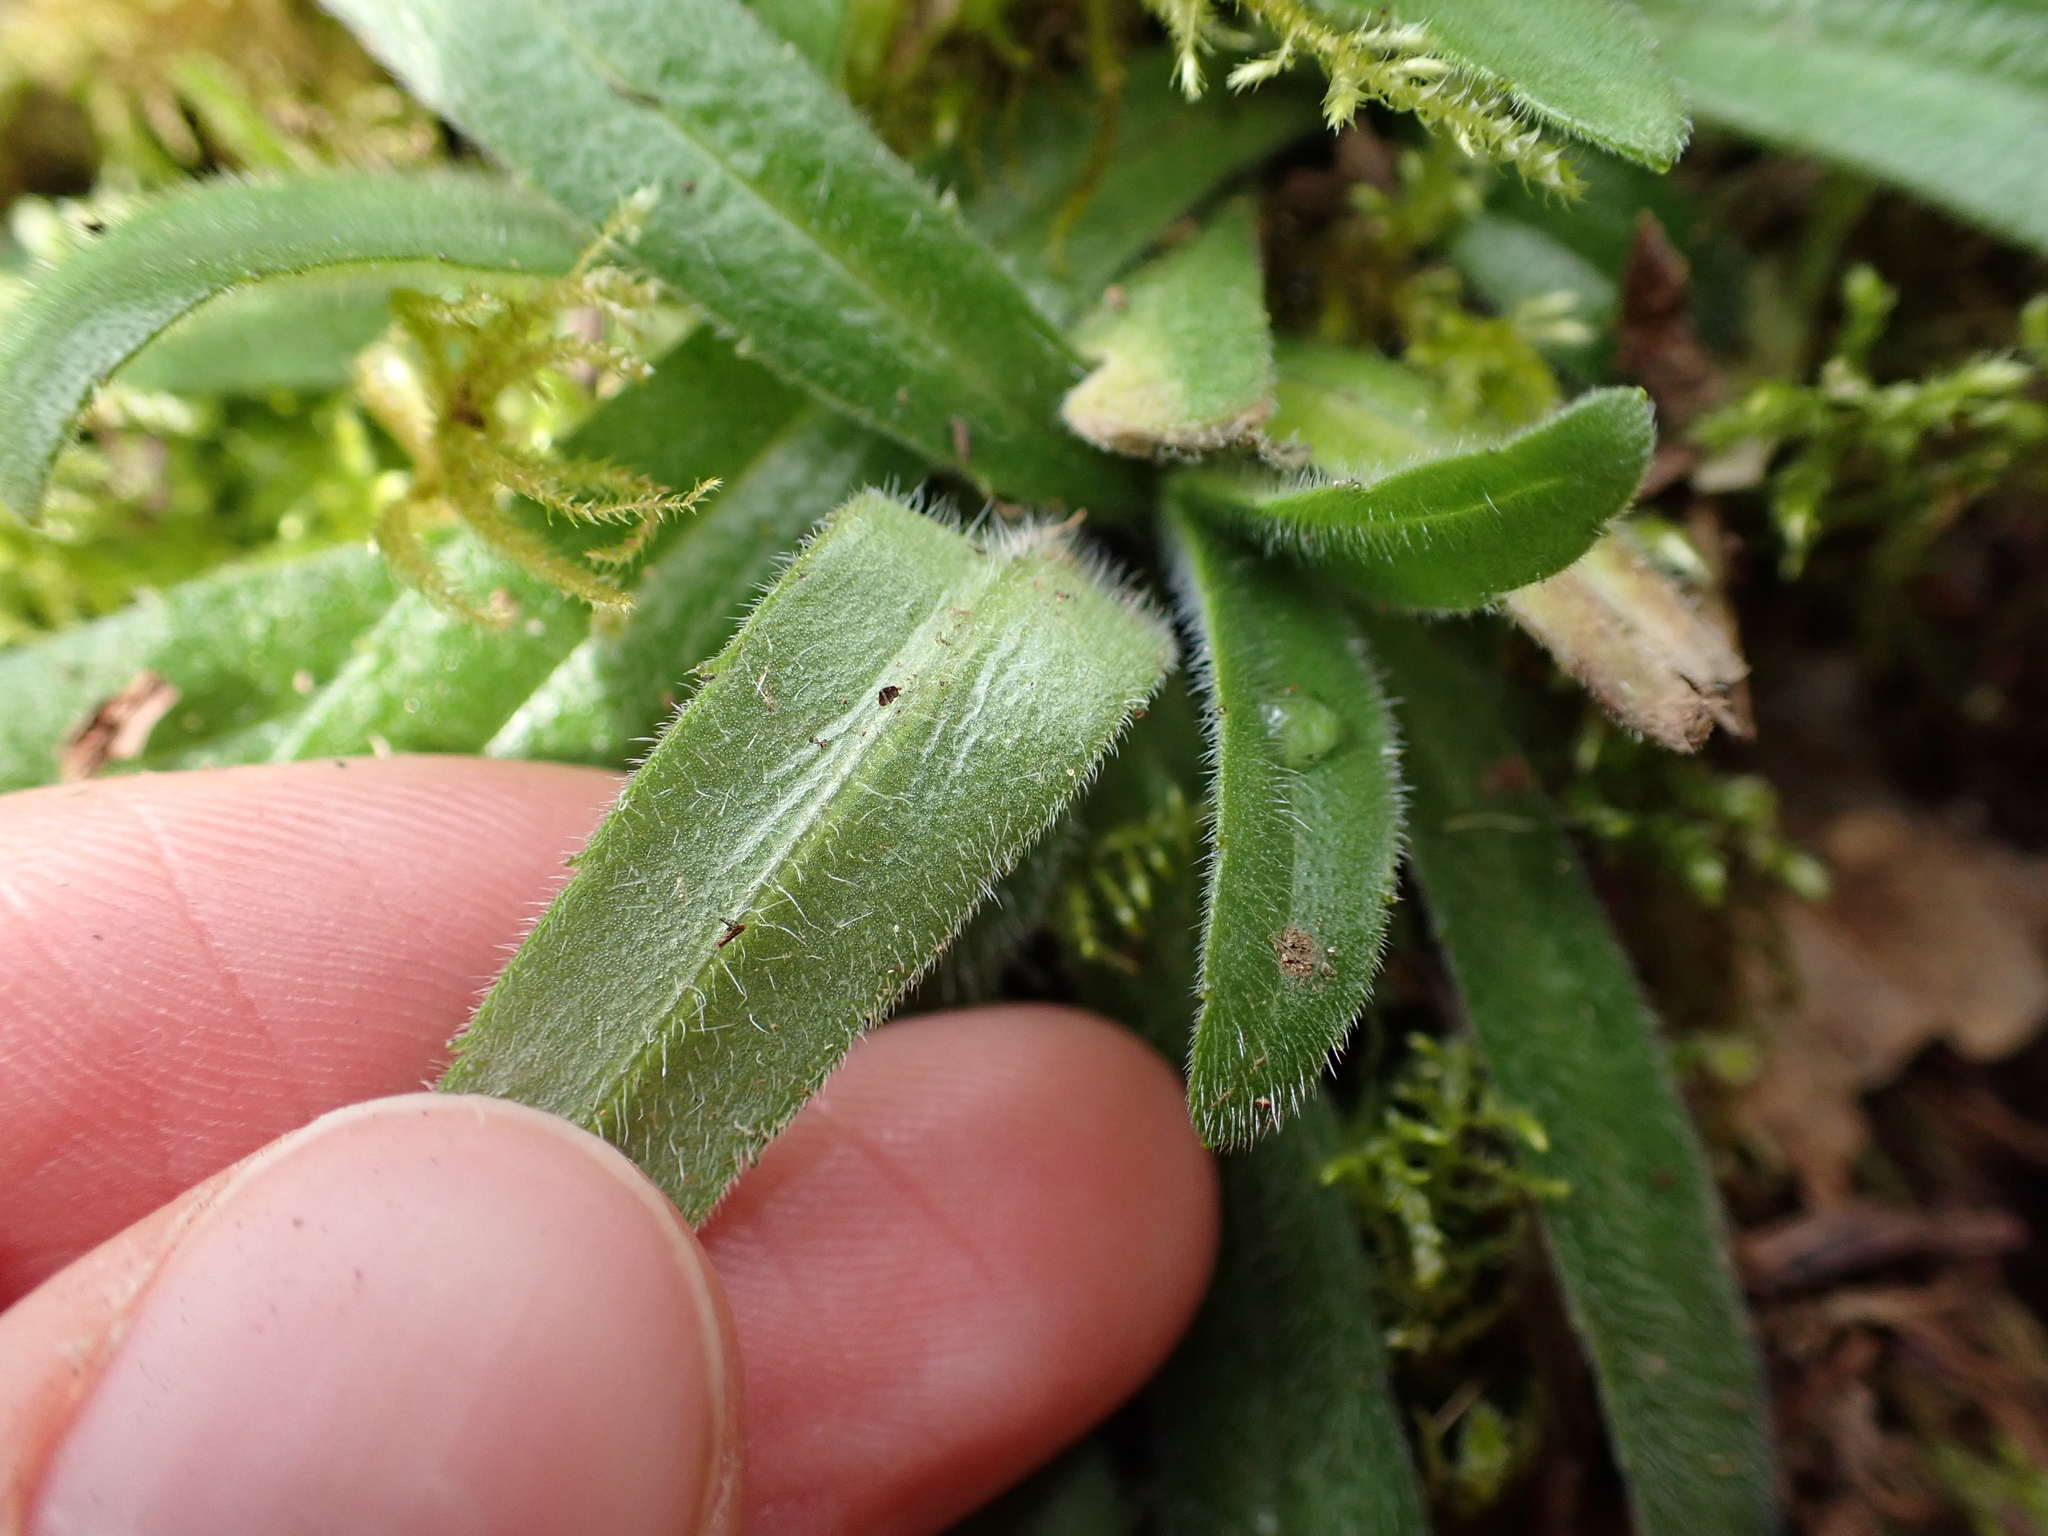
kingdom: Plantae
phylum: Tracheophyta
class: Magnoliopsida
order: Asterales
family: Asteraceae
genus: Anisocarpus
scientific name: Anisocarpus madioides
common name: Woodland madia
